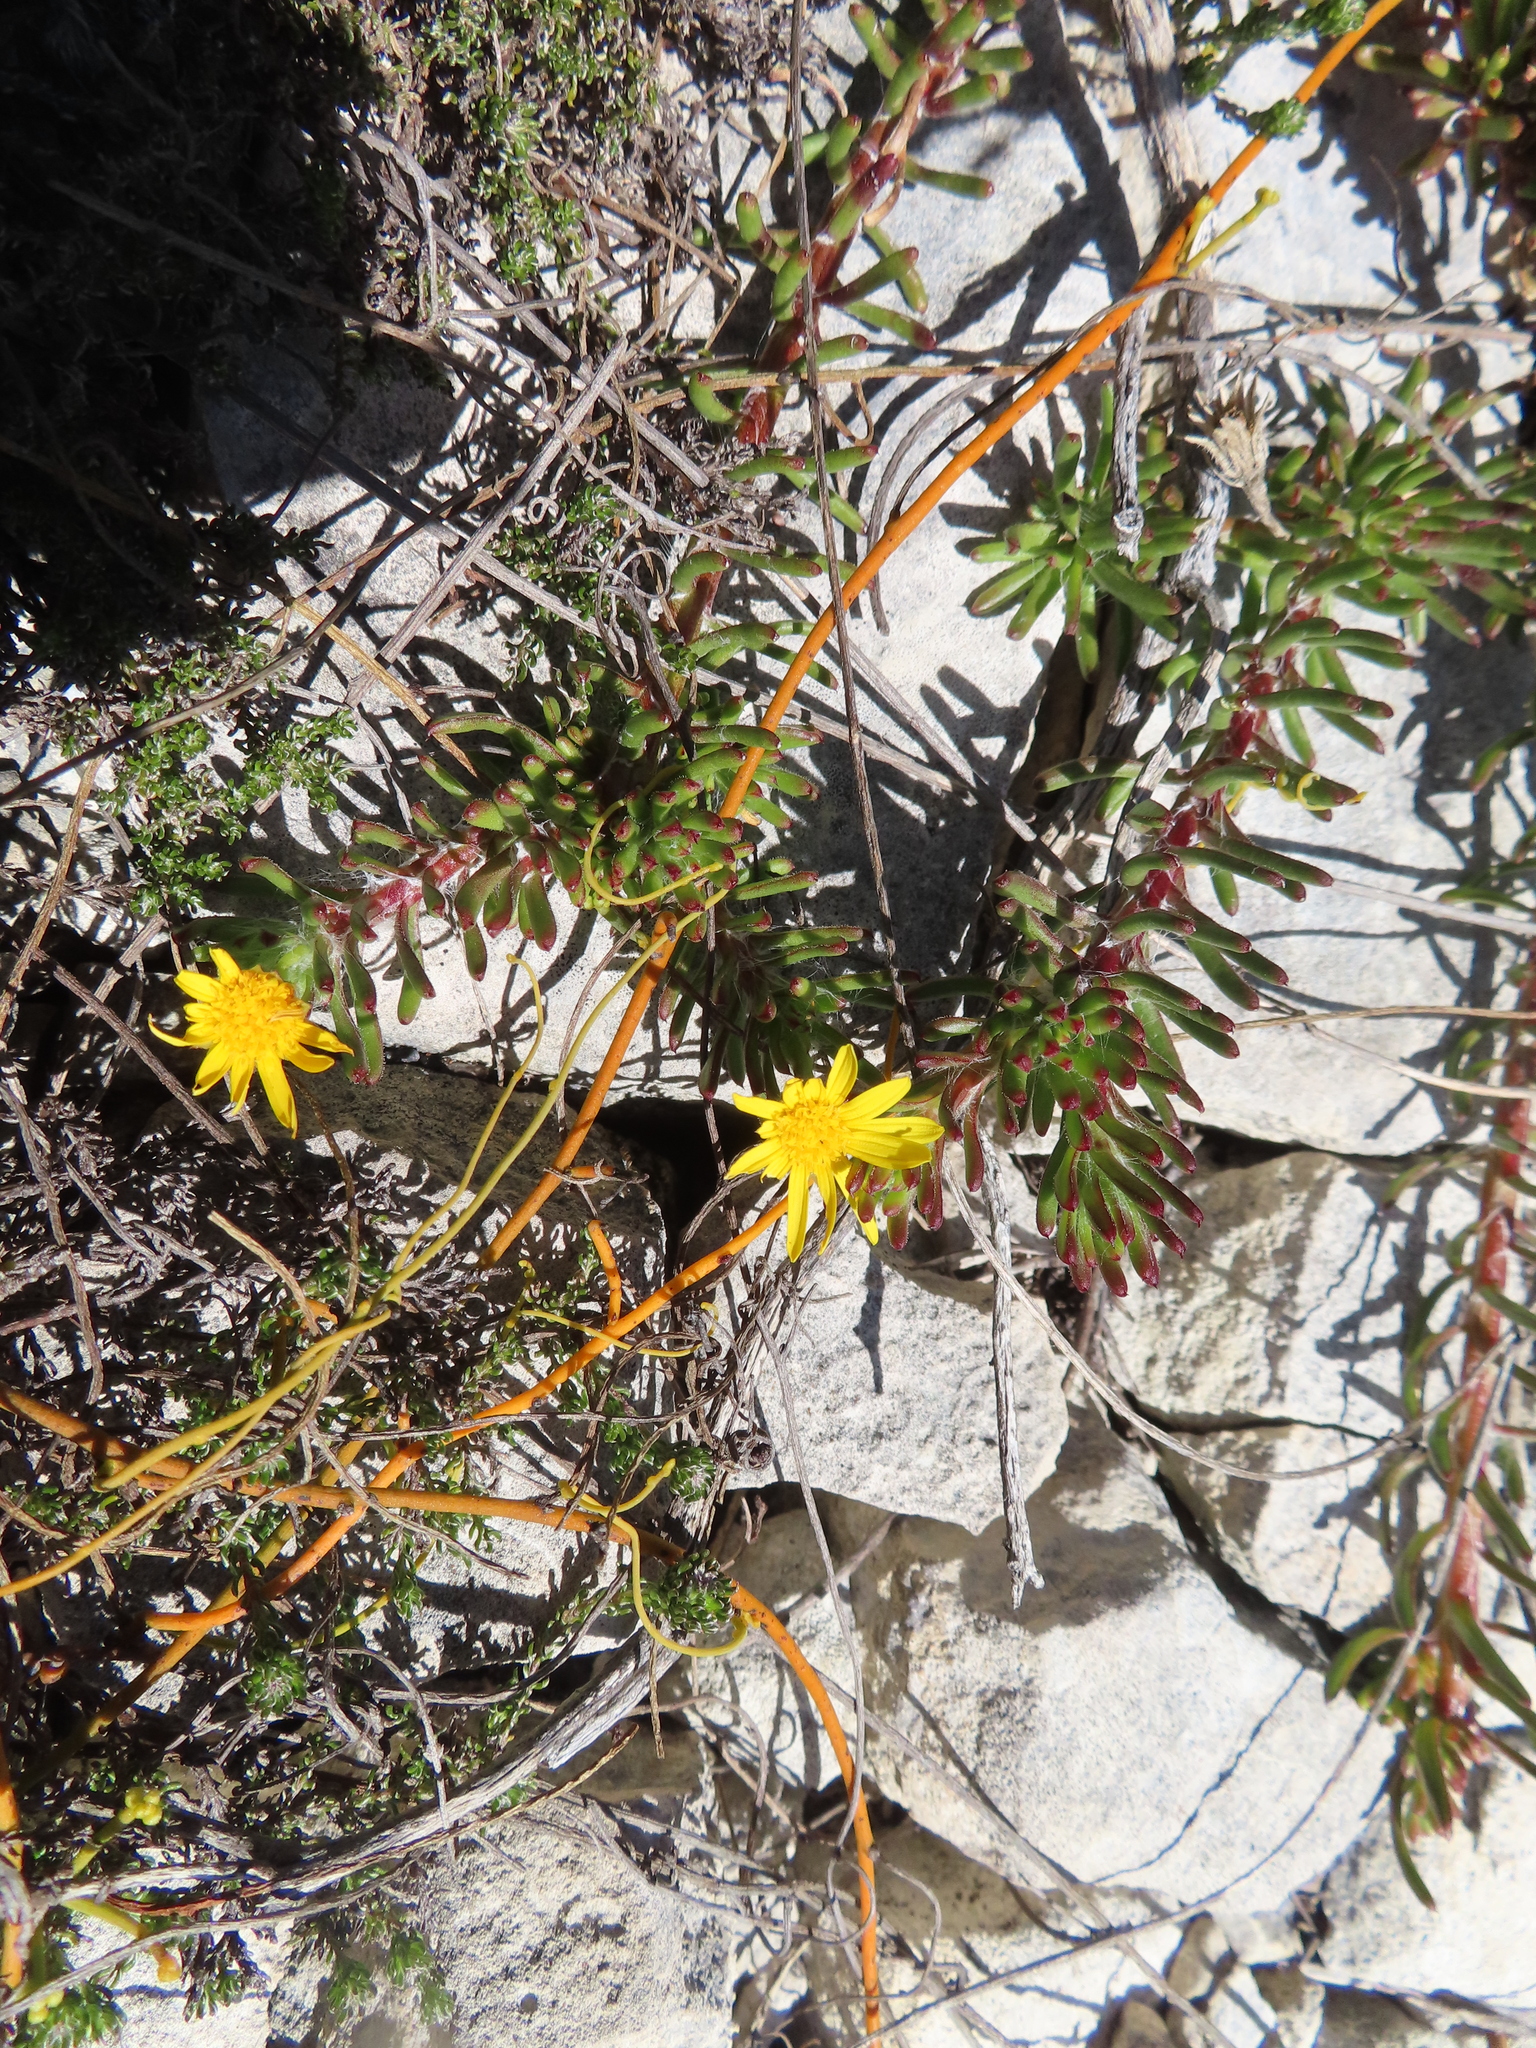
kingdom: Plantae
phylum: Tracheophyta
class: Magnoliopsida
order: Asterales
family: Asteraceae
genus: Osteospermum
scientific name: Osteospermum subulatum
